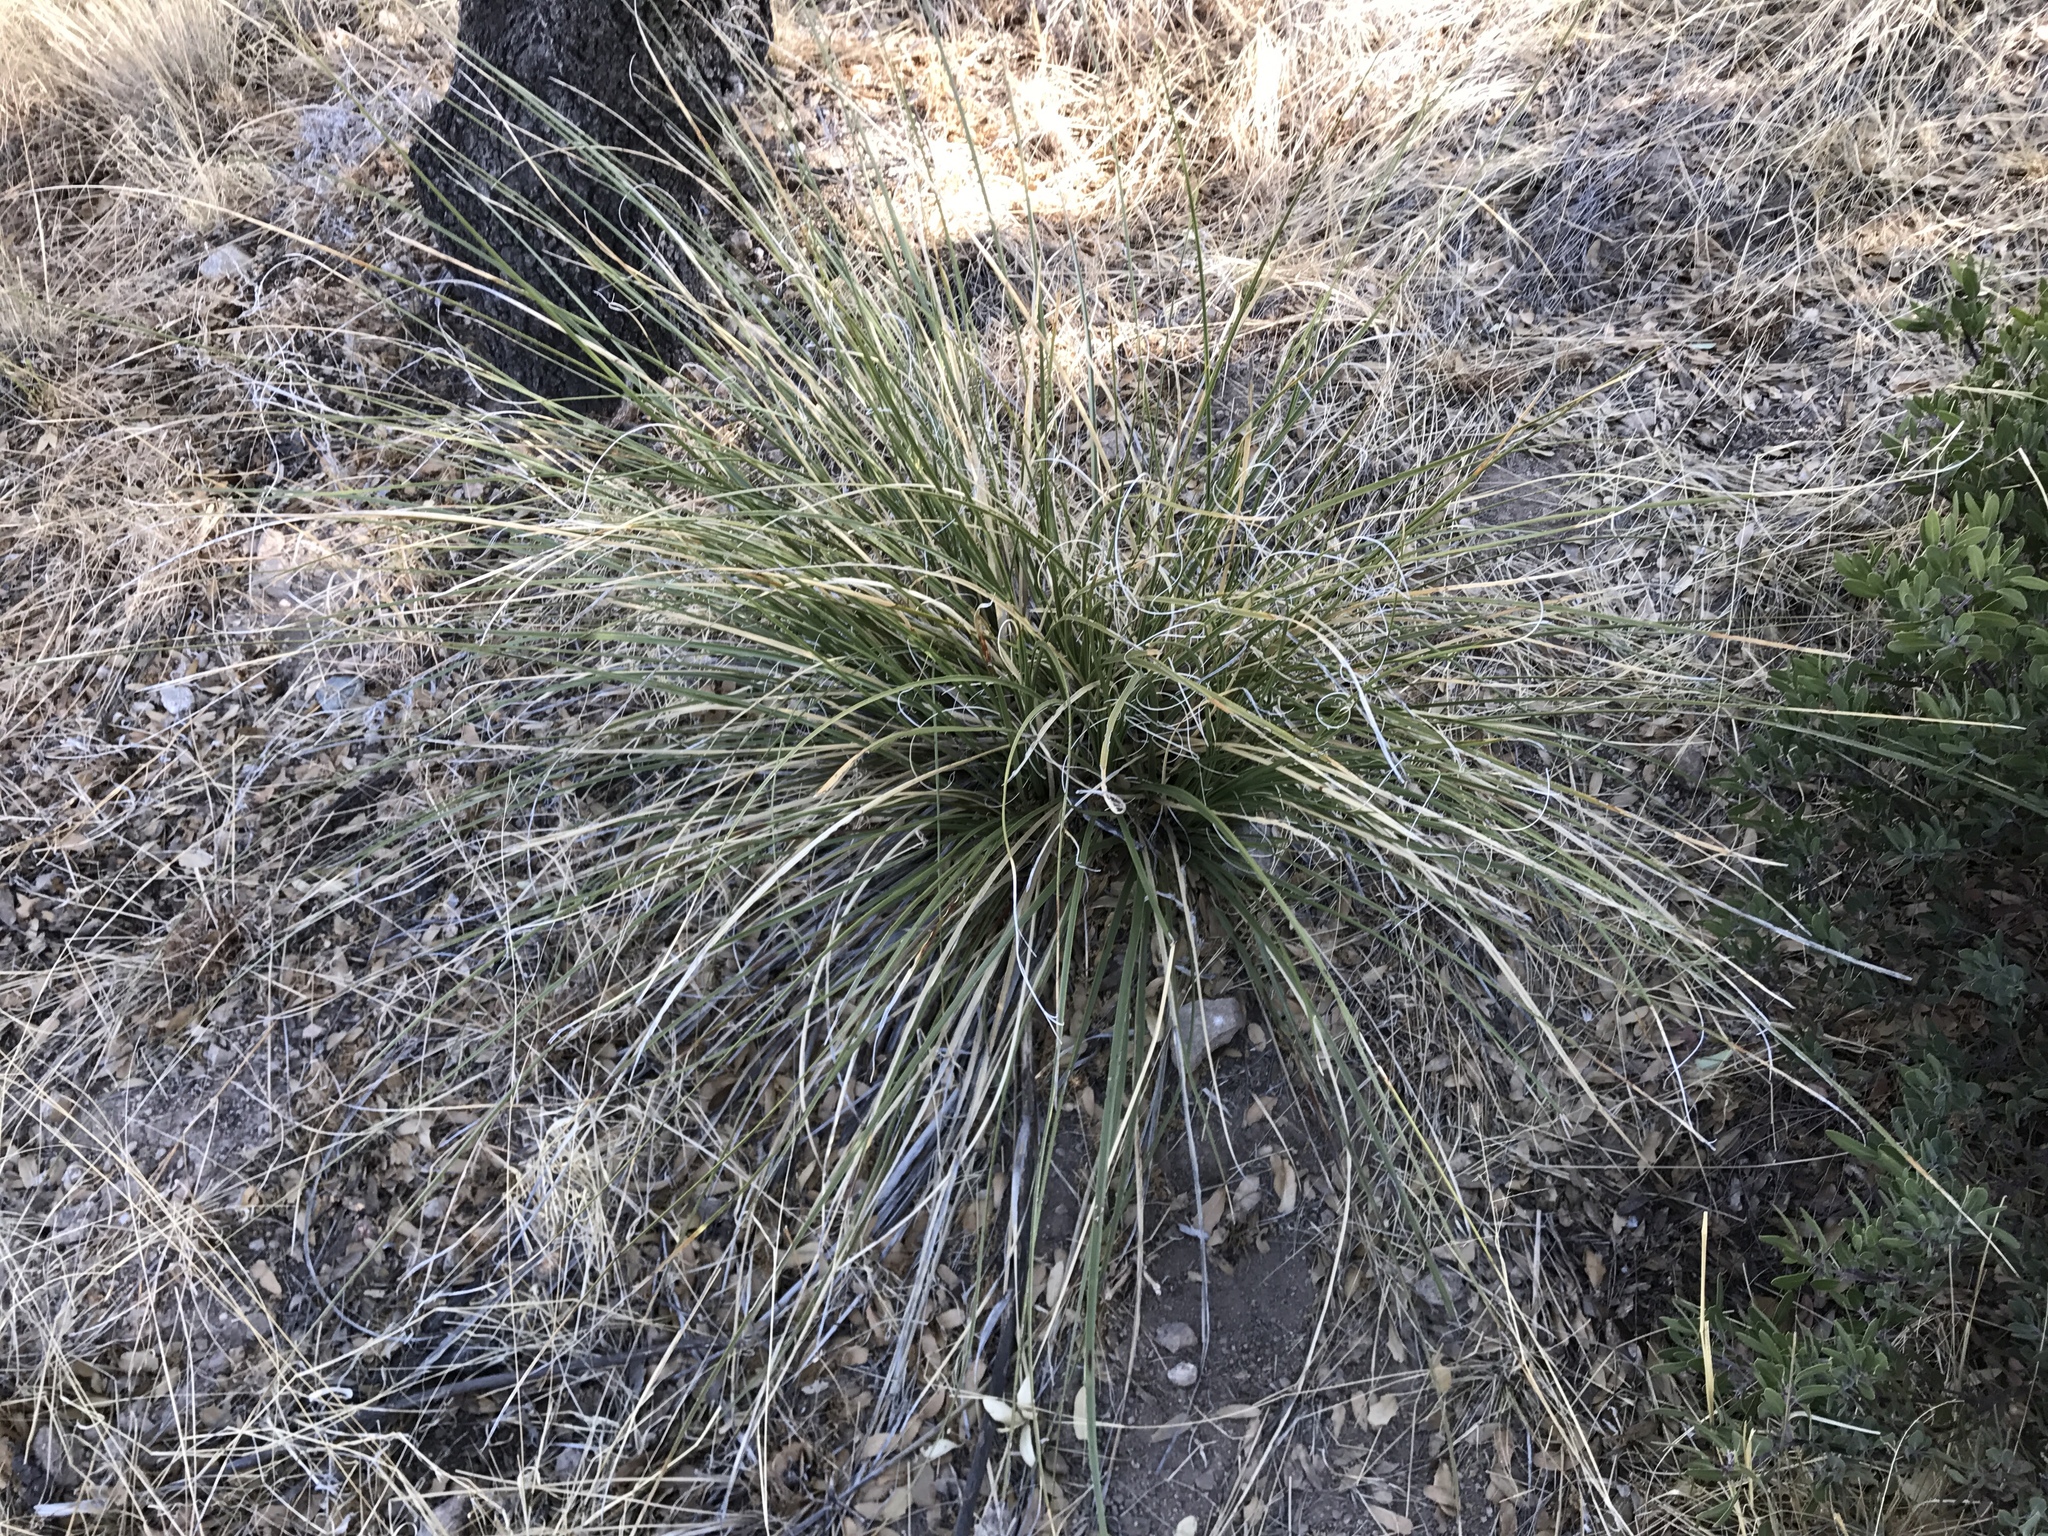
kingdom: Plantae
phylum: Tracheophyta
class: Liliopsida
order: Asparagales
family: Asparagaceae
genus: Nolina
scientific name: Nolina microcarpa
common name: Bear-grass
